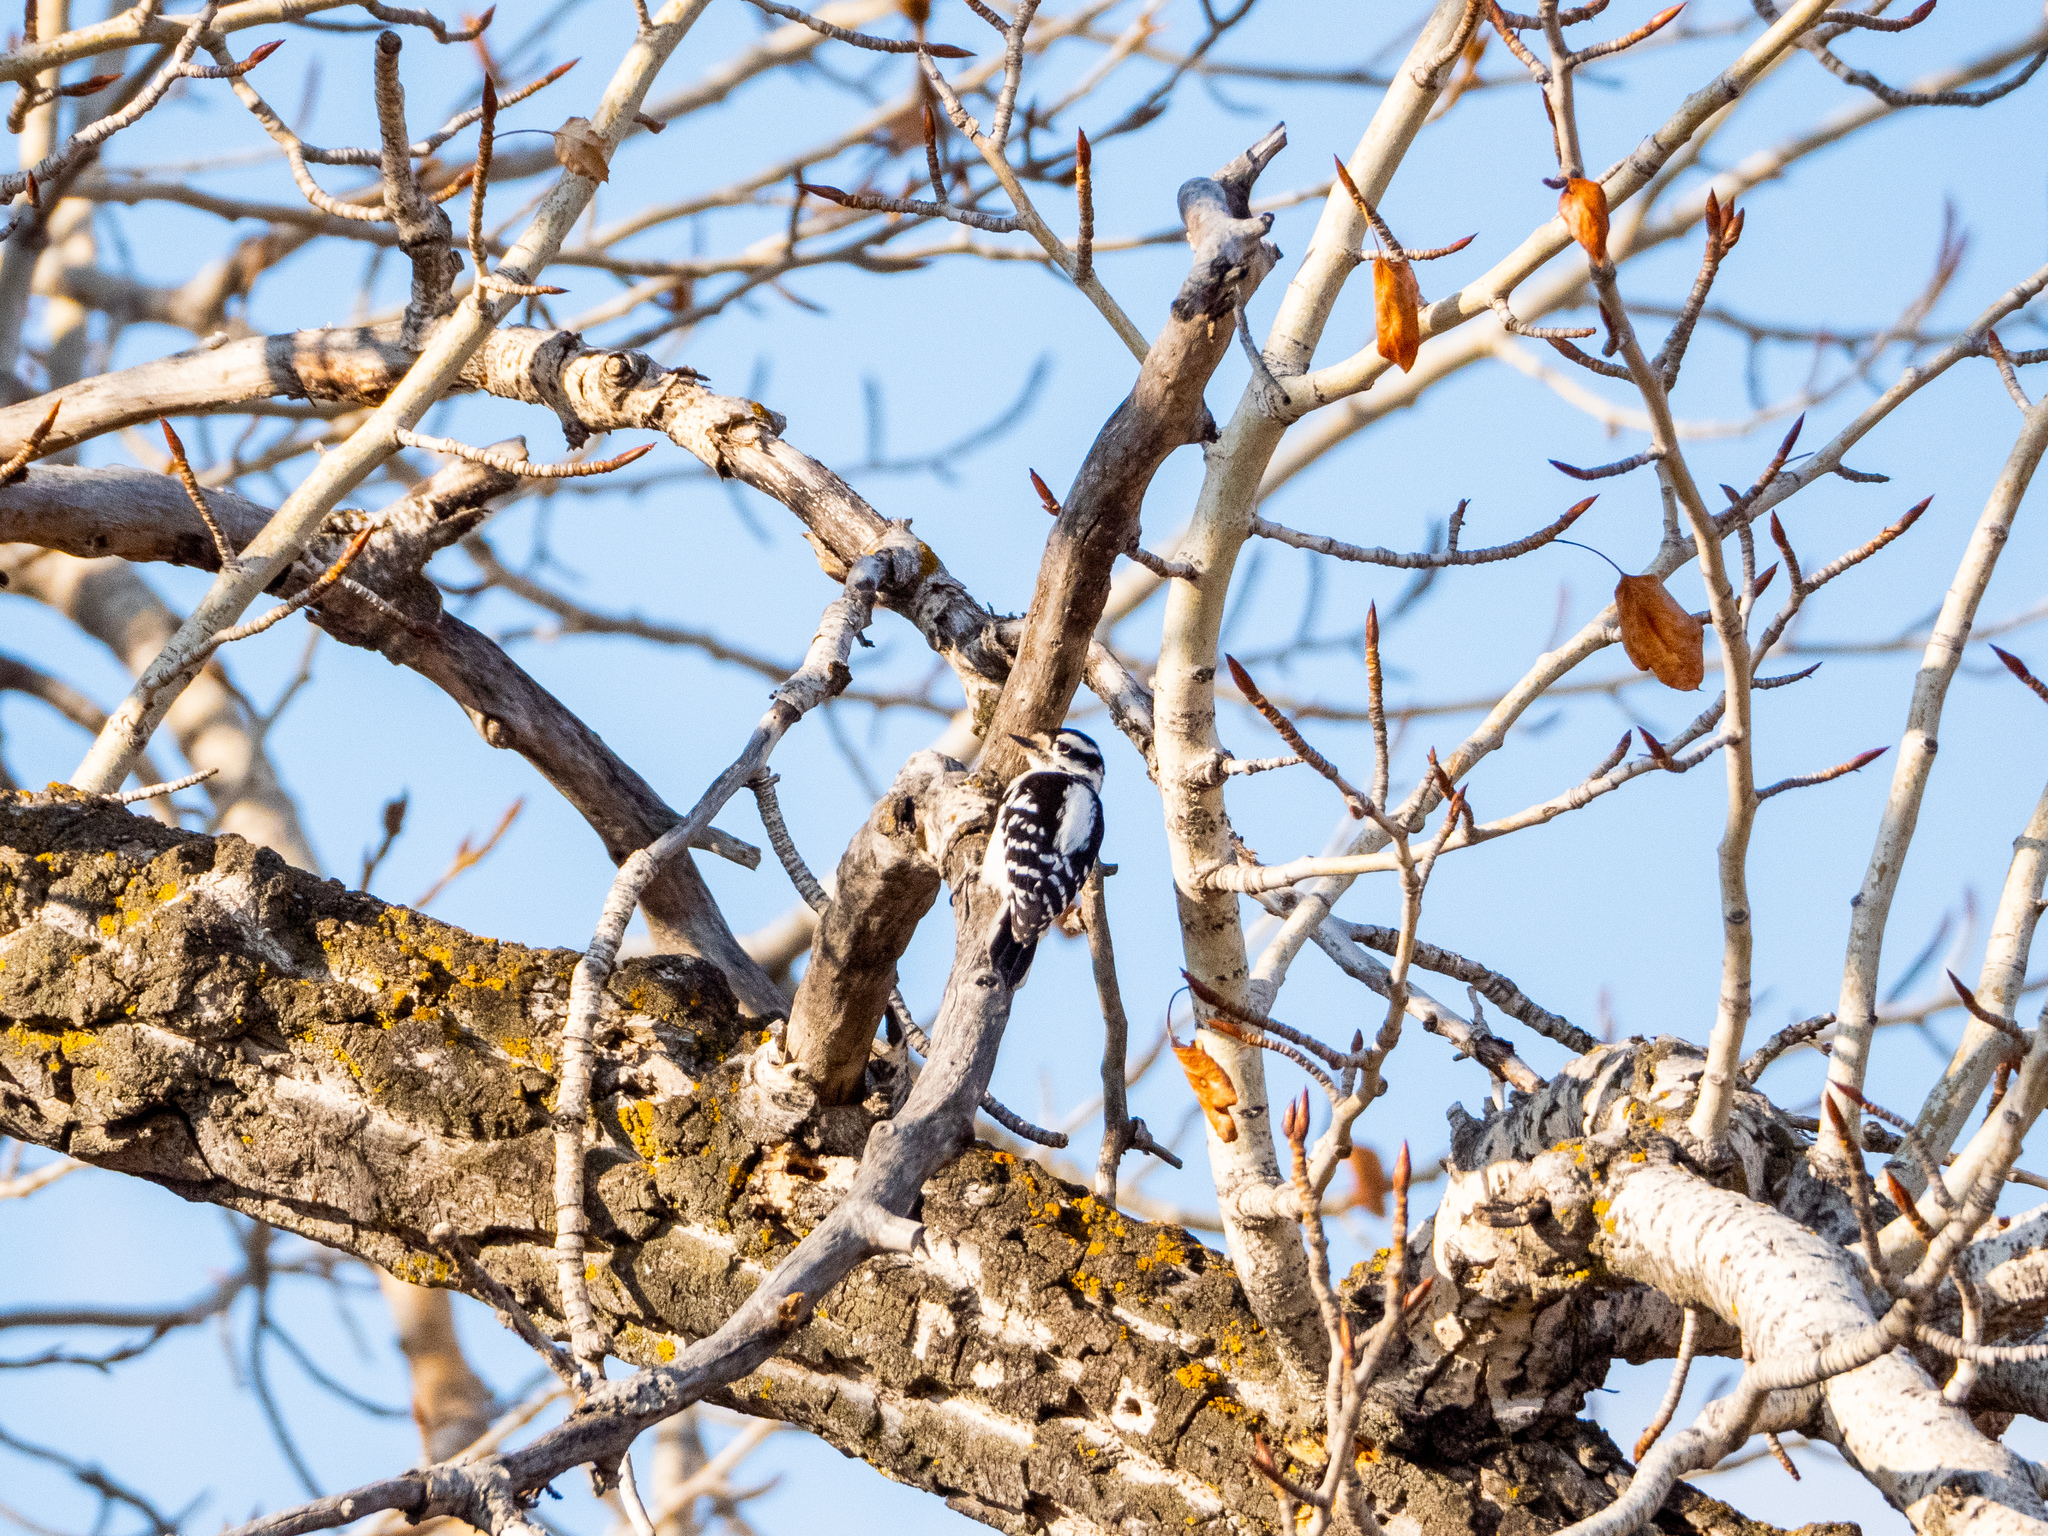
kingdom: Animalia
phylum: Chordata
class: Aves
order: Piciformes
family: Picidae
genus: Dryobates
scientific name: Dryobates pubescens
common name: Downy woodpecker
